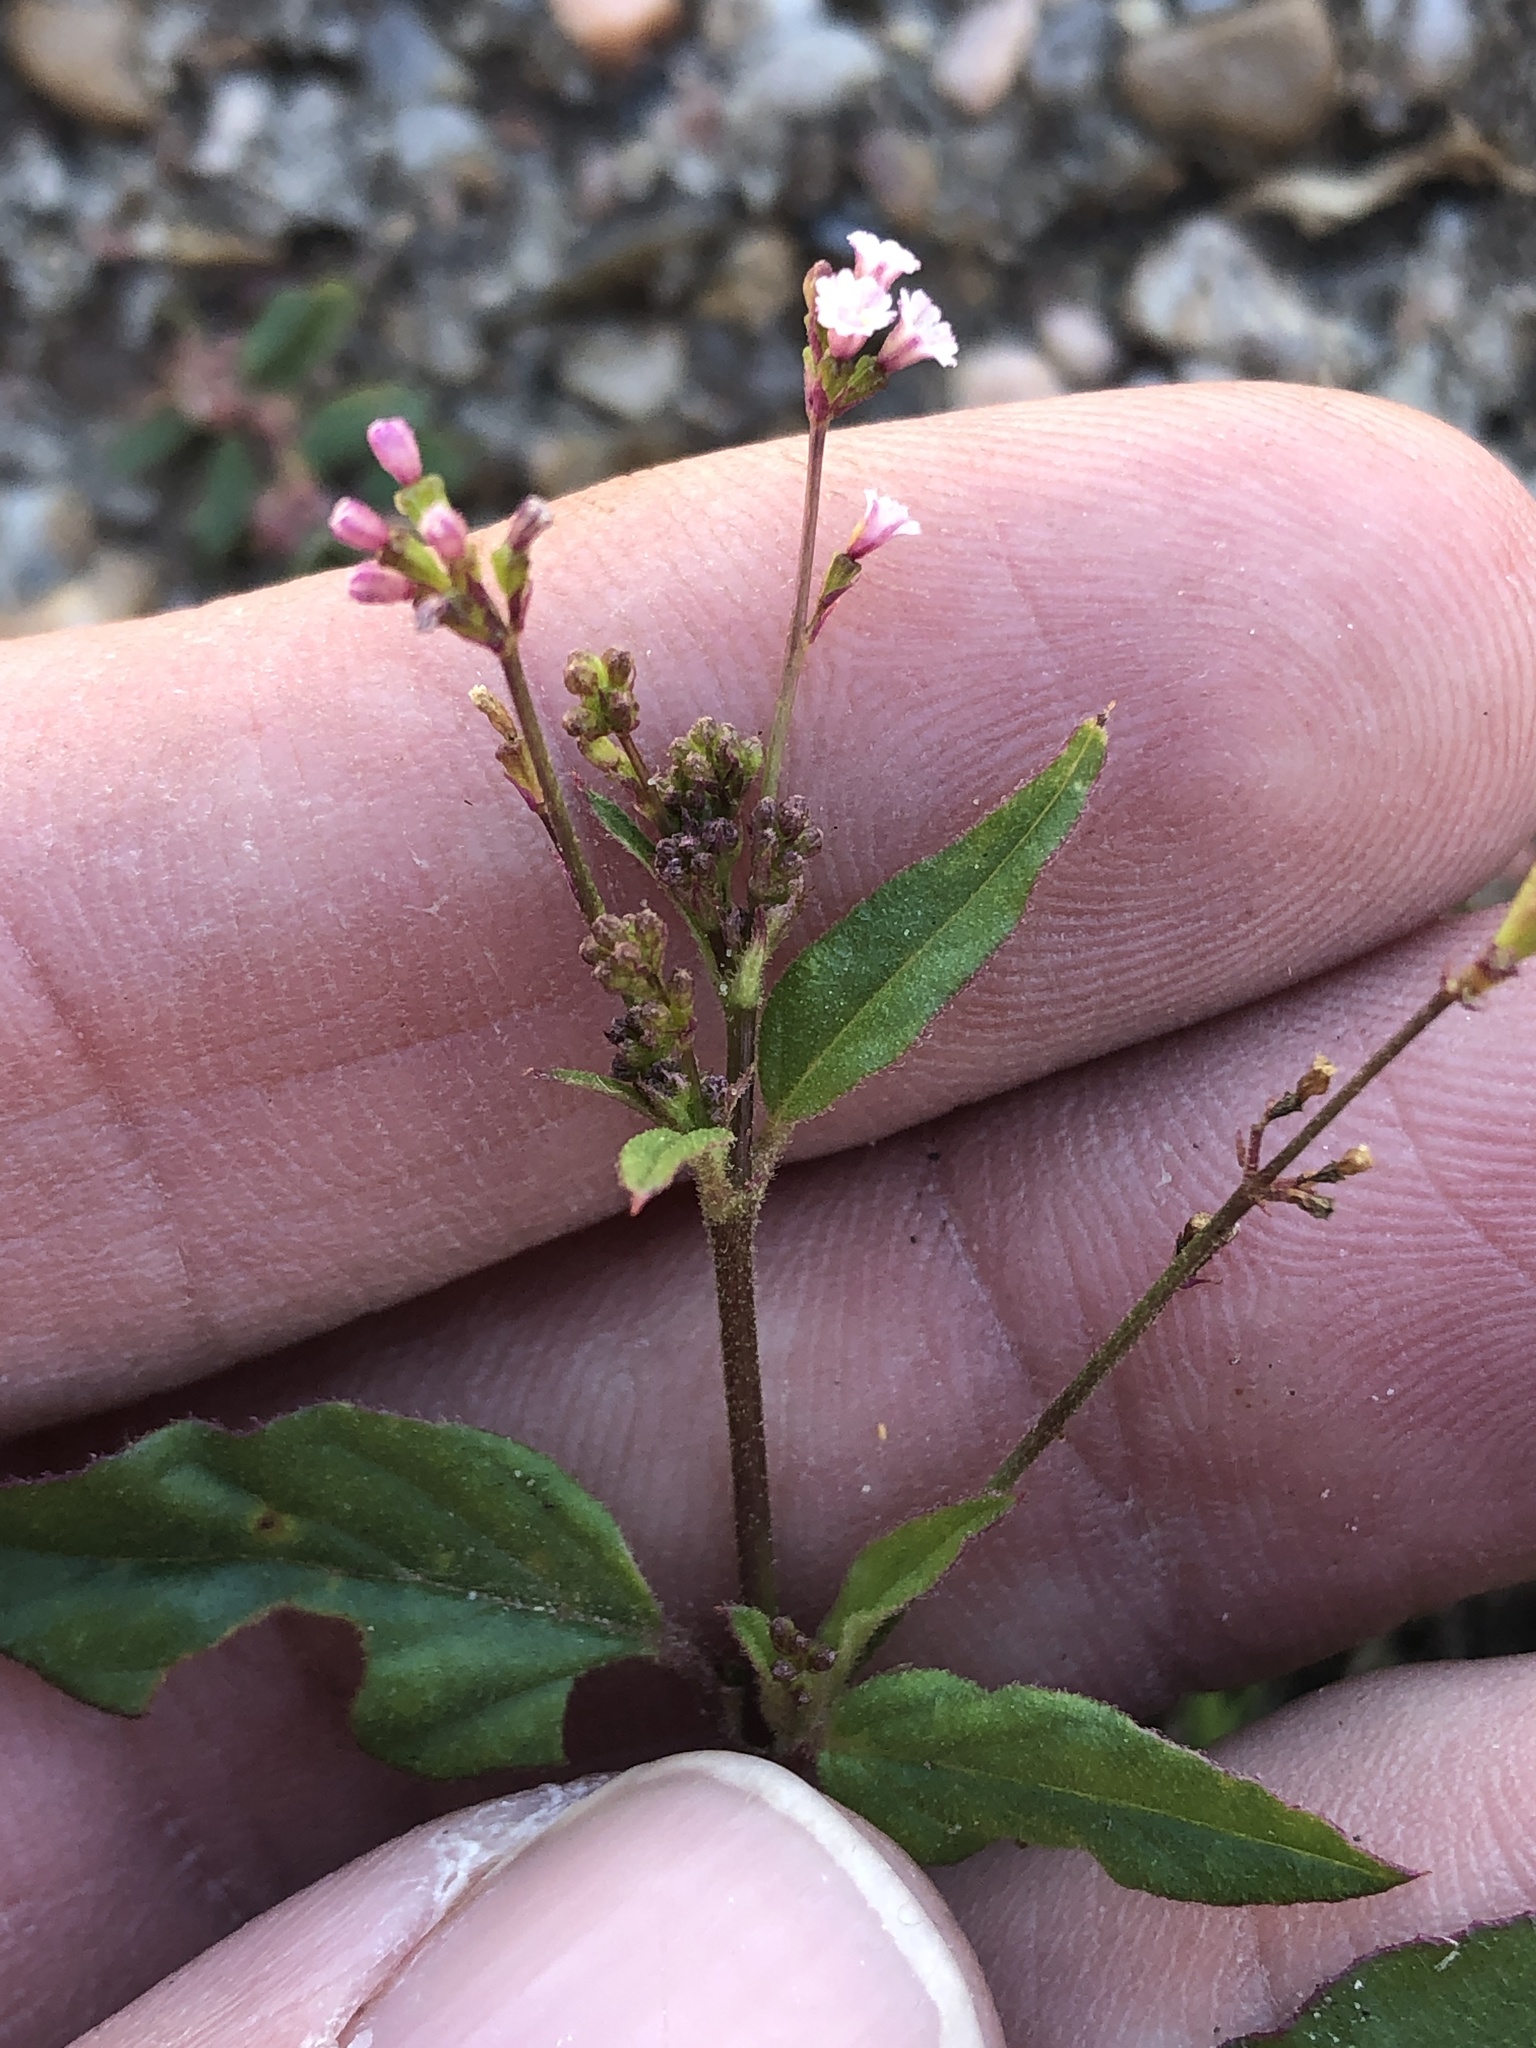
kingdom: Plantae
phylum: Tracheophyta
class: Magnoliopsida
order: Caryophyllales
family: Nyctaginaceae
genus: Boerhavia
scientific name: Boerhavia erecta
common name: Erect spiderling
